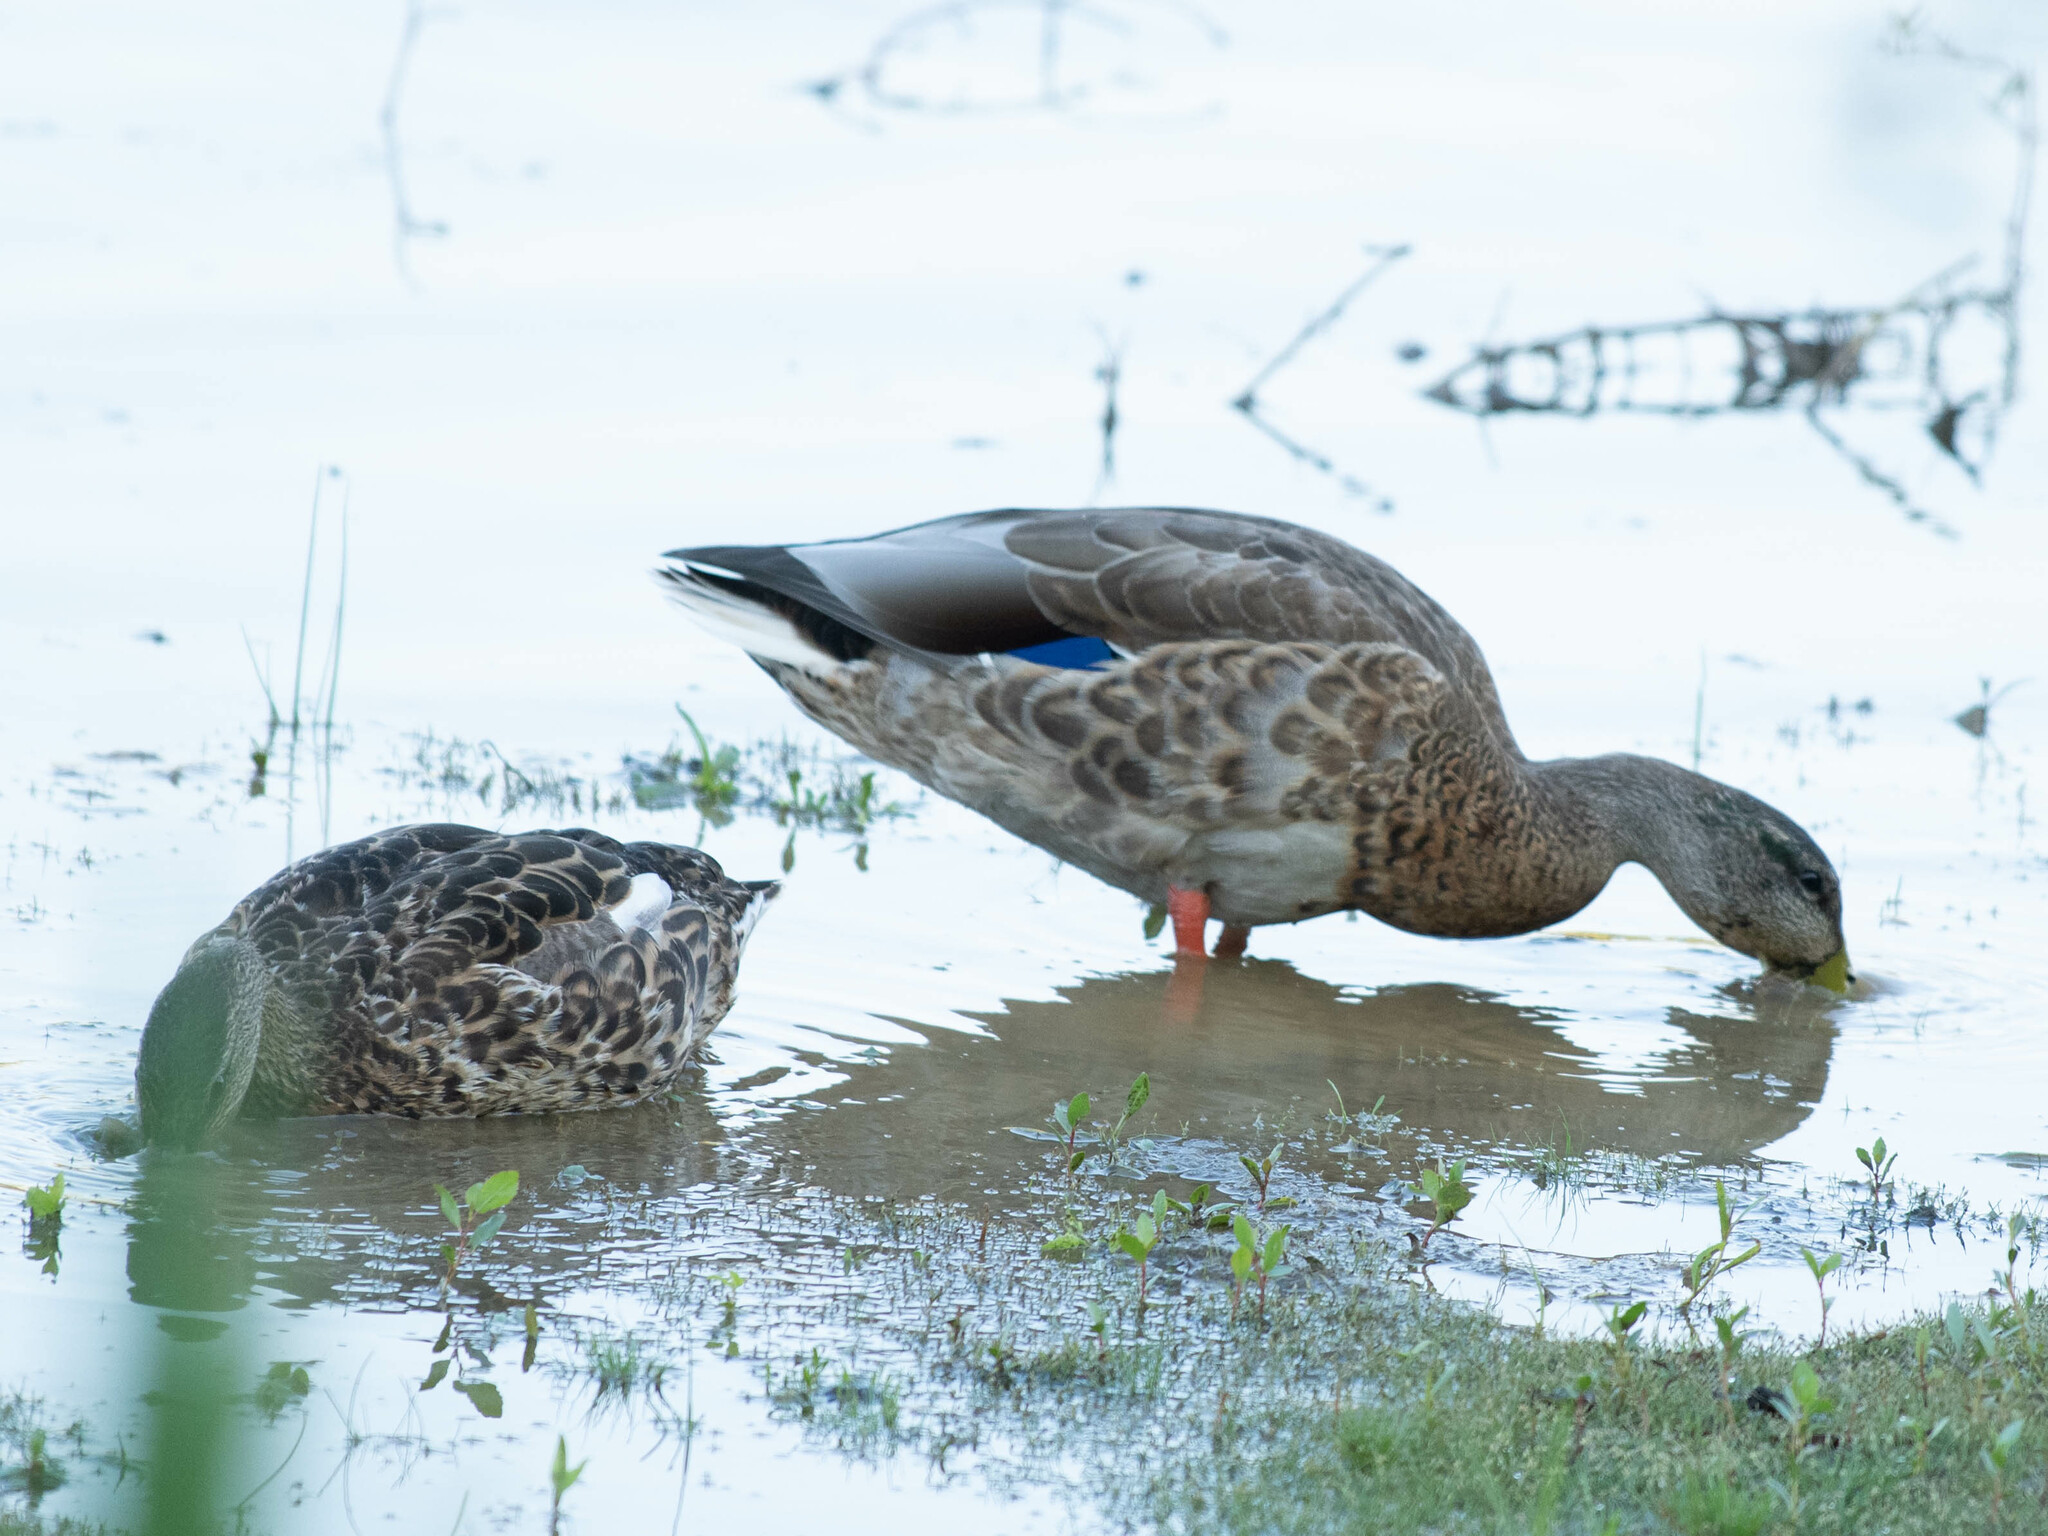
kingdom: Animalia
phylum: Chordata
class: Aves
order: Anseriformes
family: Anatidae
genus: Anas
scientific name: Anas platyrhynchos
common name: Mallard
